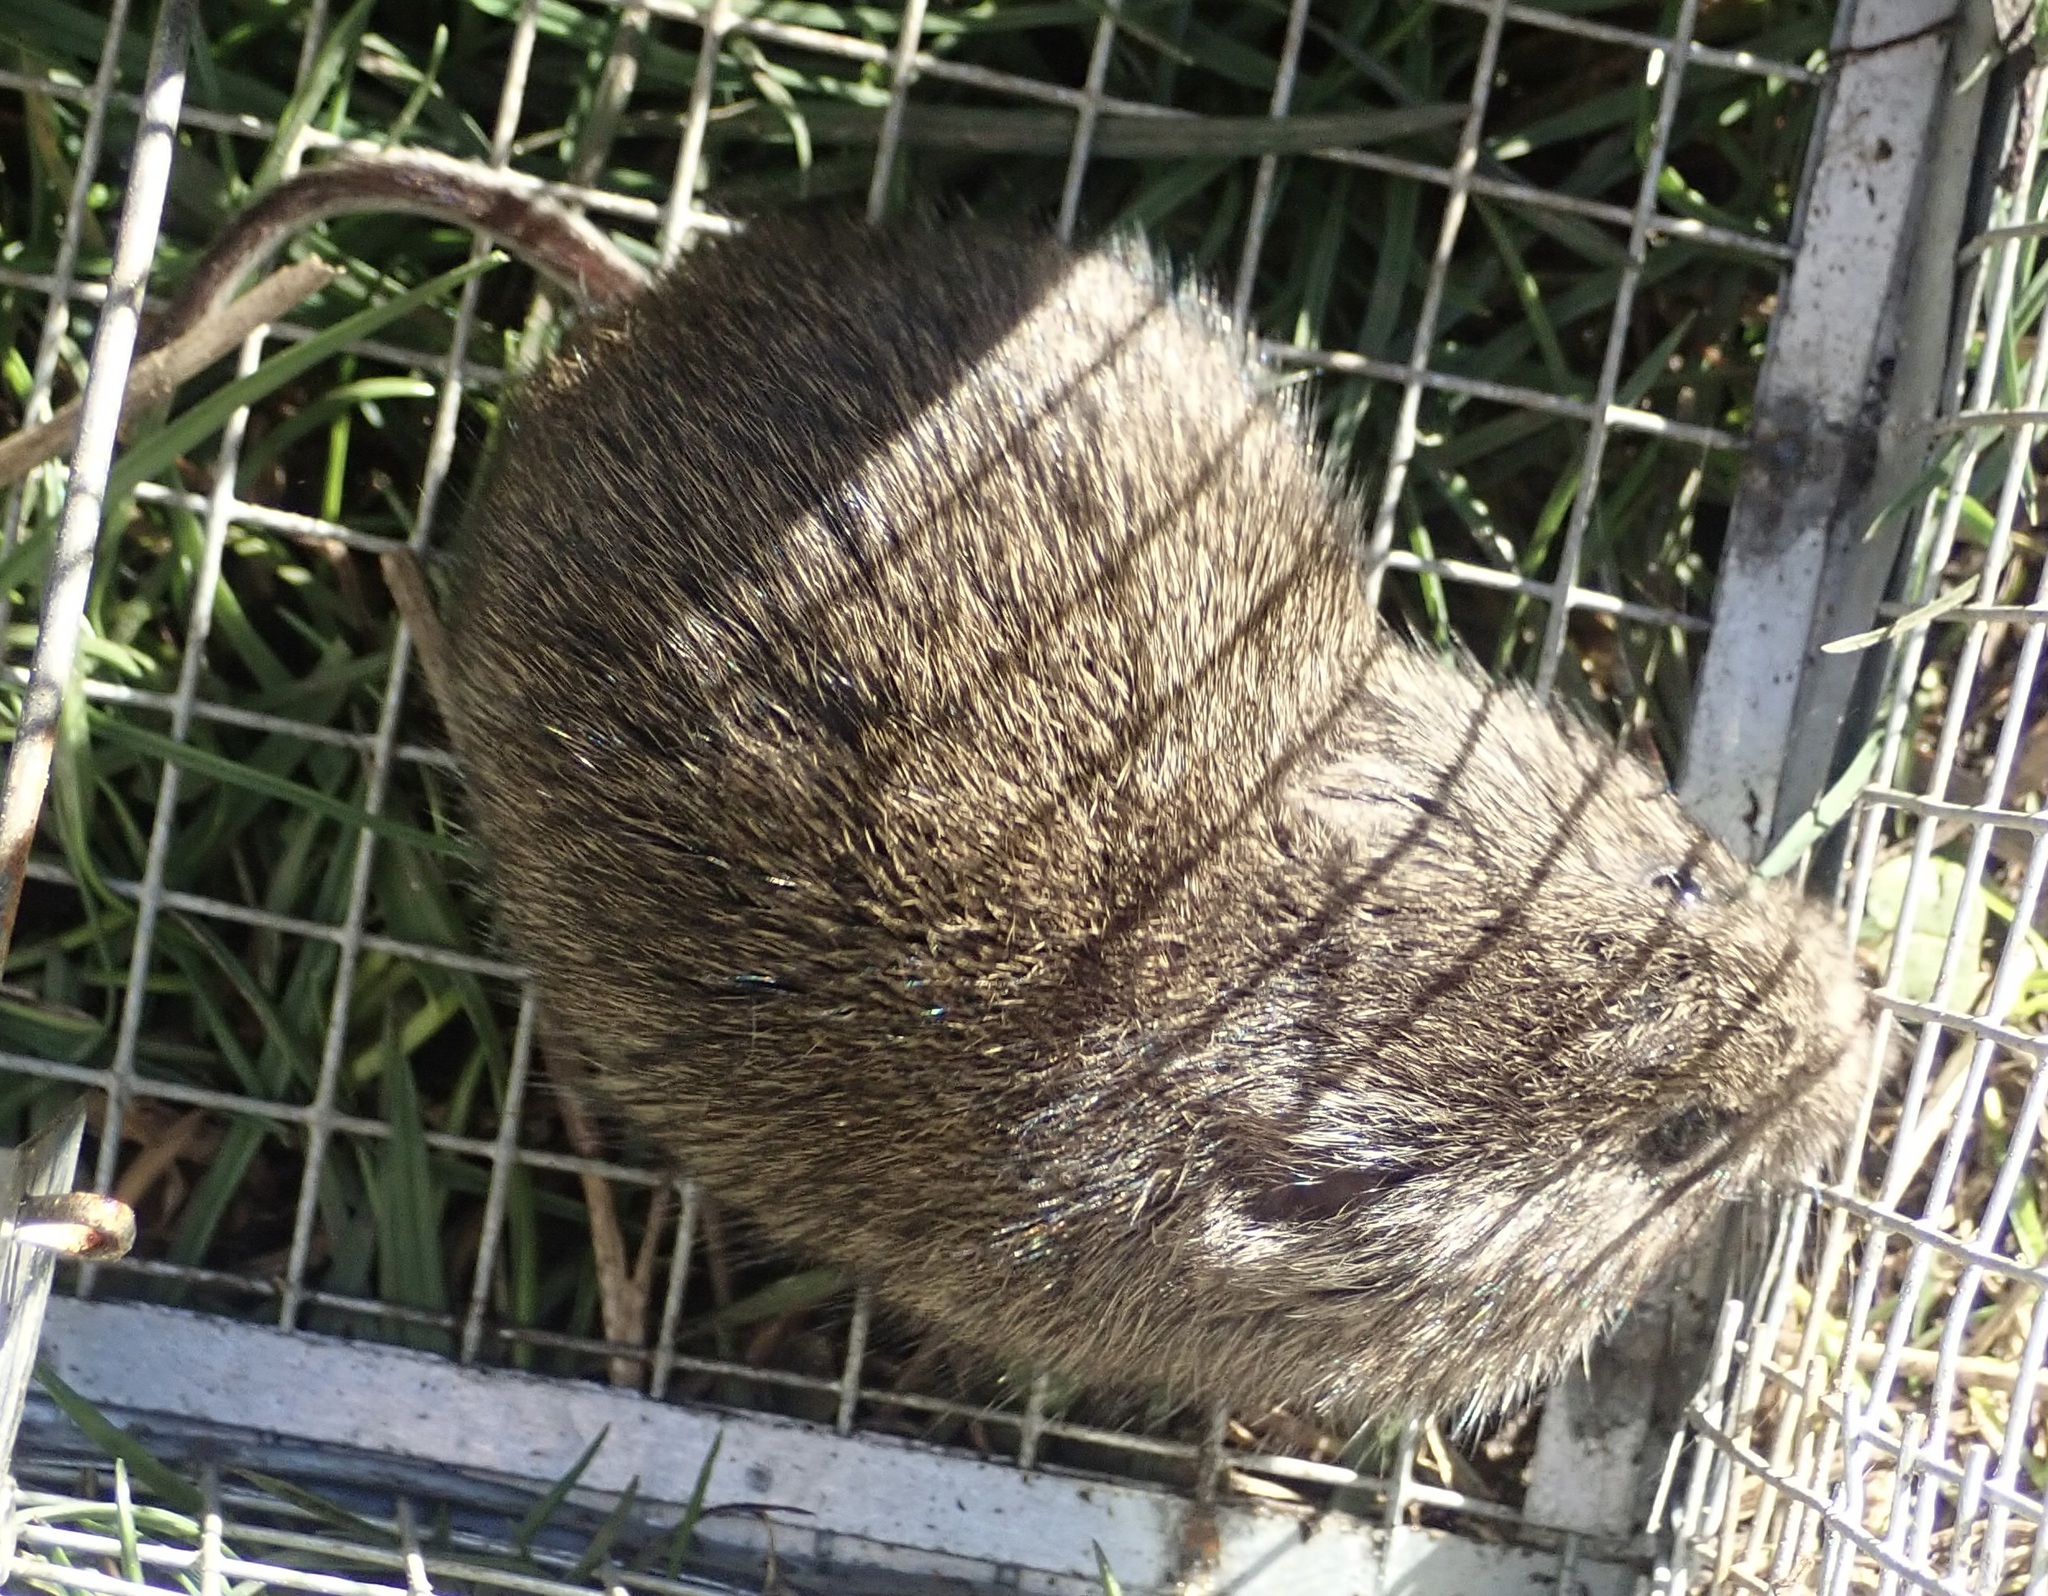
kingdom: Animalia
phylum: Chordata
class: Mammalia
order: Rodentia
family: Cricetidae
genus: Microtus
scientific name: Microtus californicus
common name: California vole
